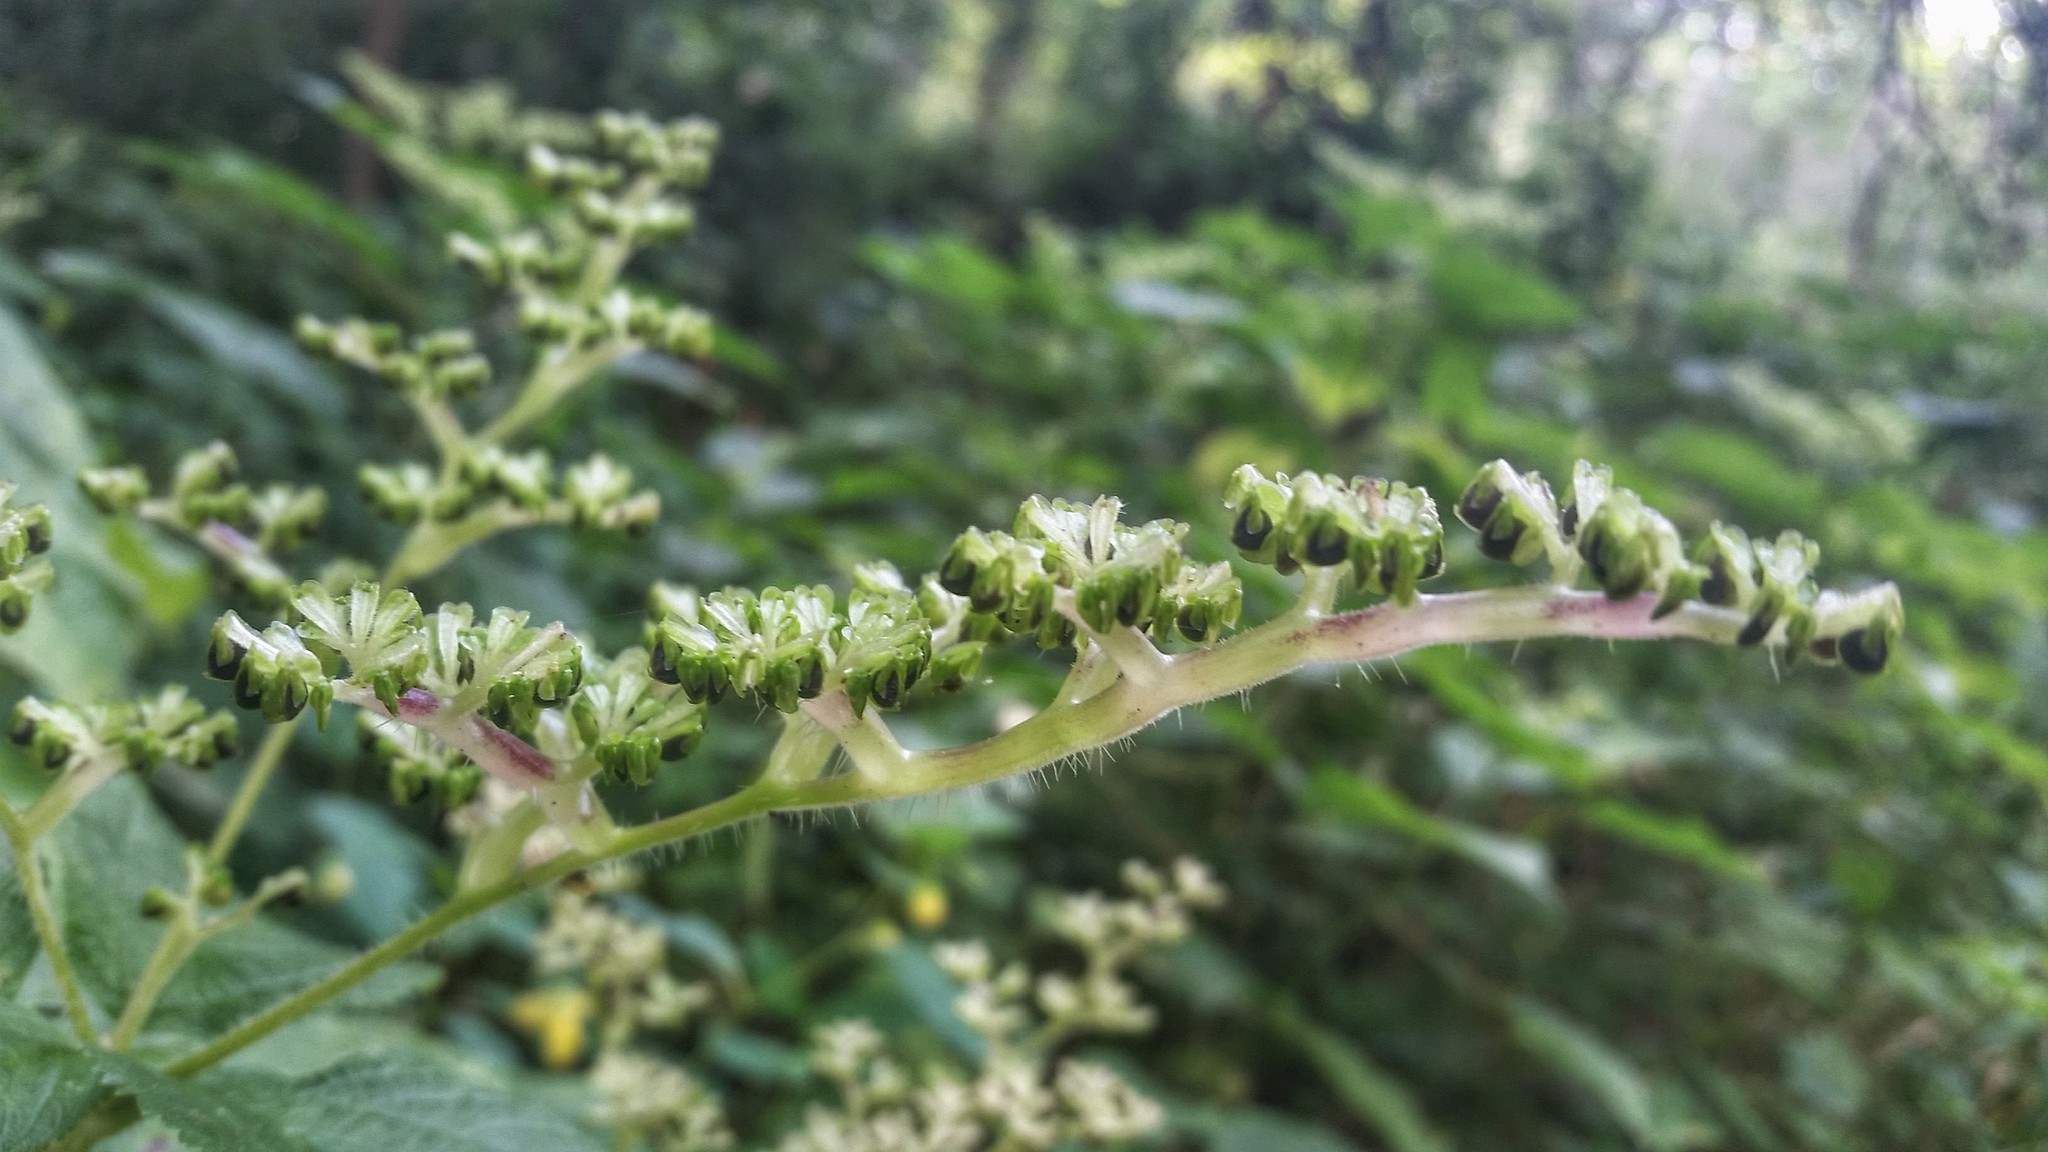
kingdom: Plantae
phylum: Tracheophyta
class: Magnoliopsida
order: Rosales
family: Urticaceae
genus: Laportea
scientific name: Laportea canadensis
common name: Canada nettle
